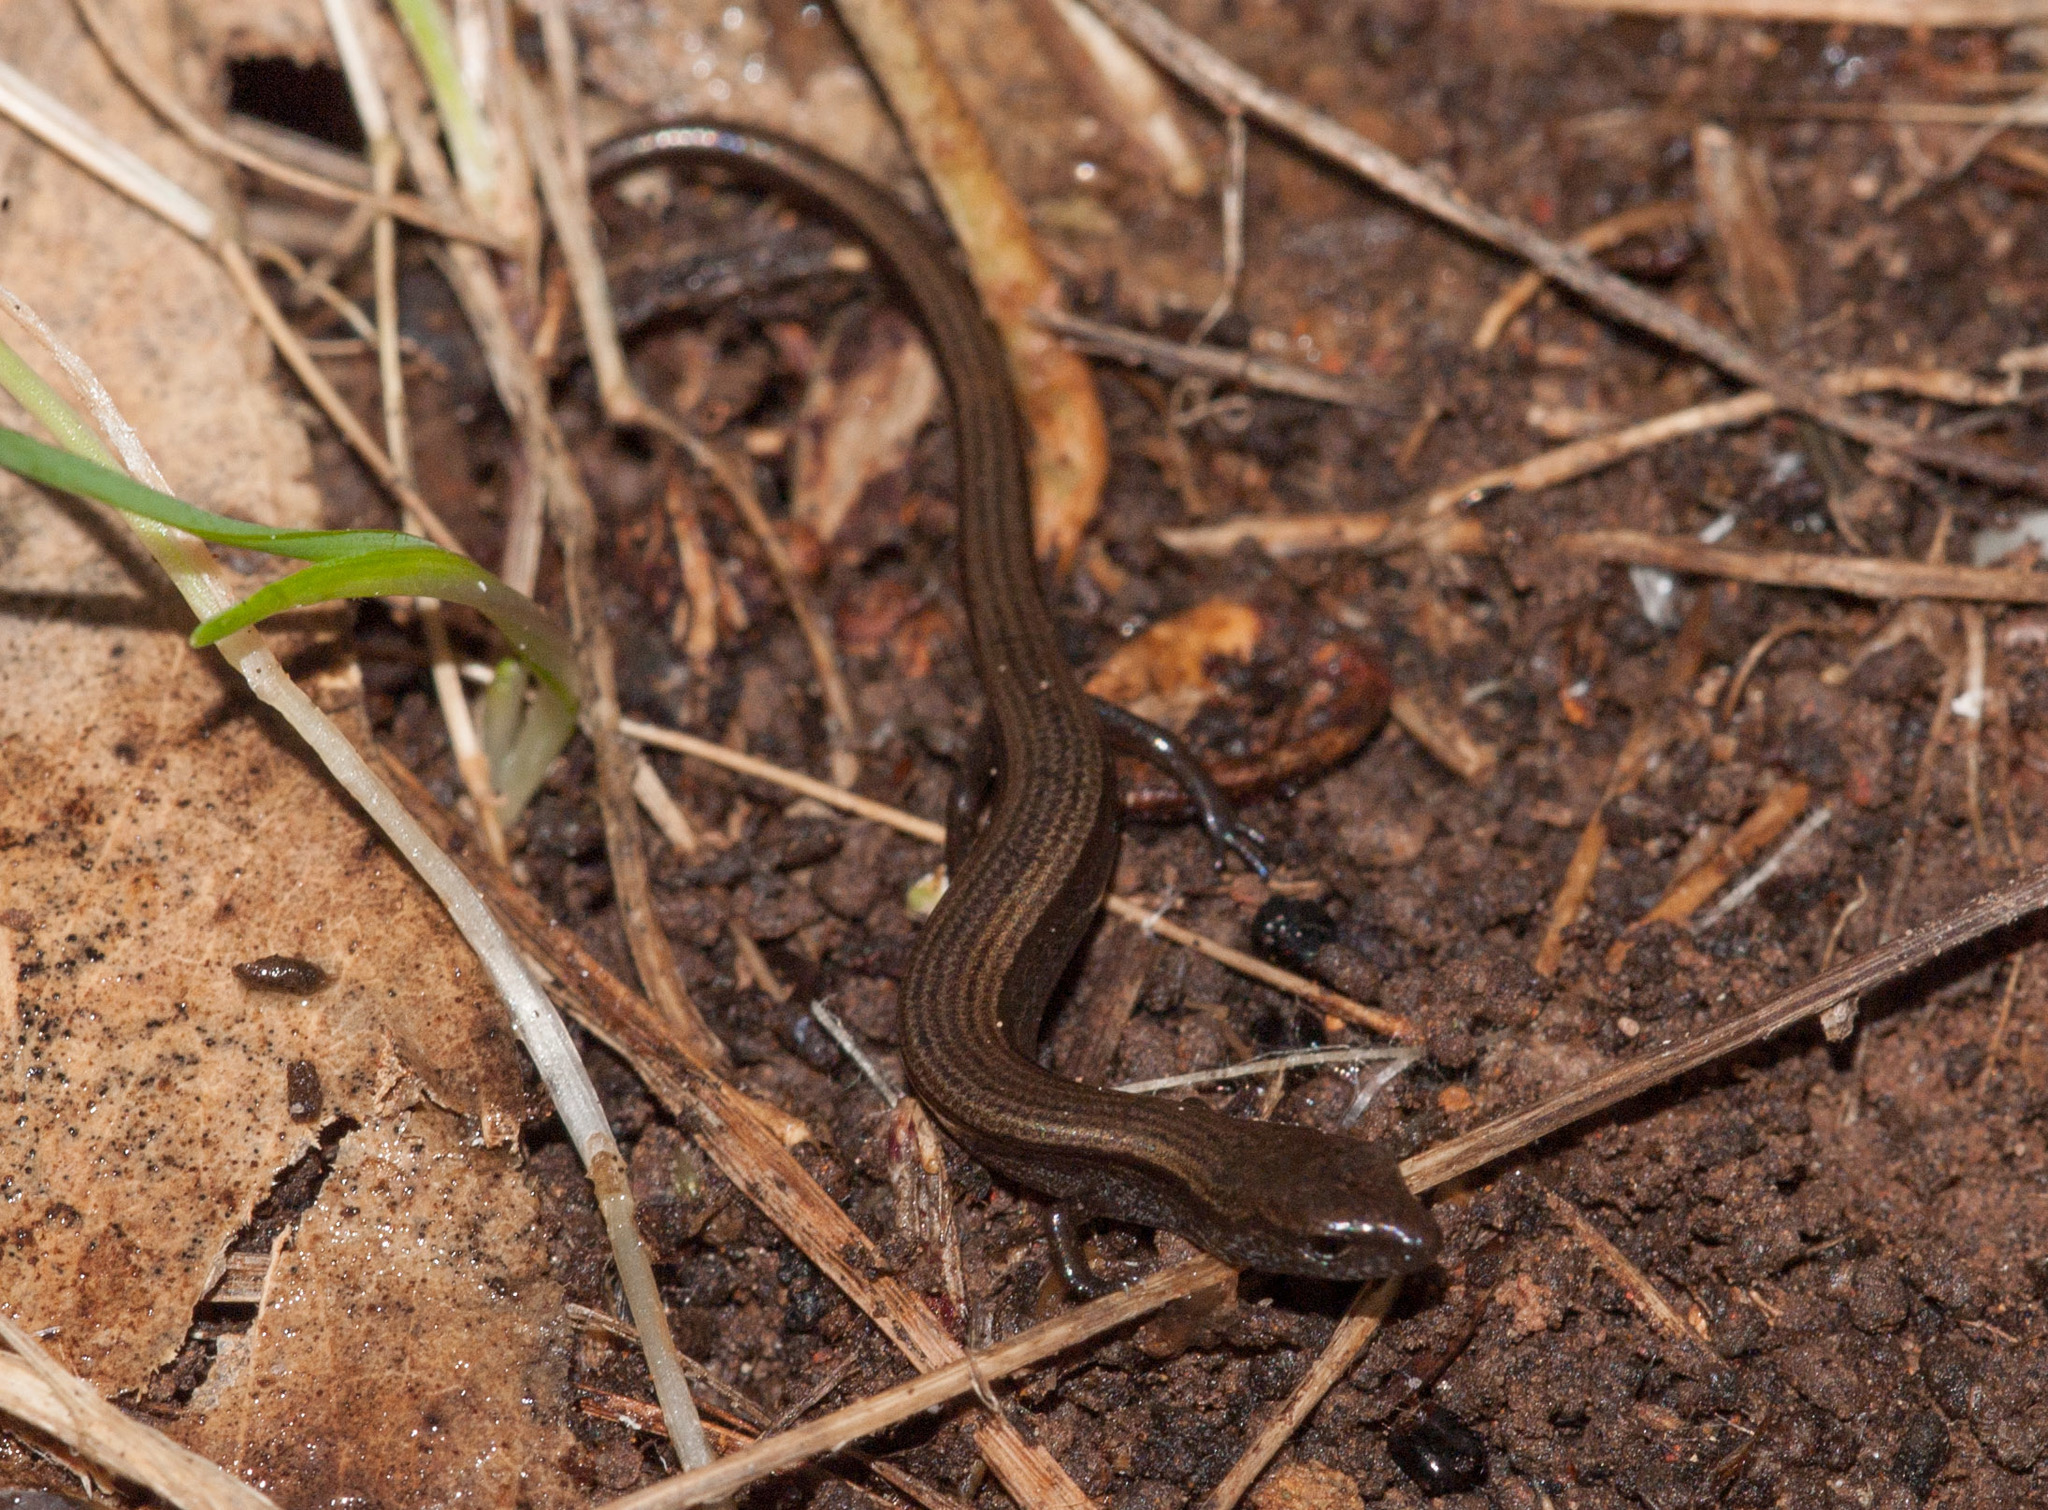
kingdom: Animalia
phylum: Chordata
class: Squamata
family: Scincidae
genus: Hemiergis
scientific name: Hemiergis decresiensis
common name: Three-toed earless skink
